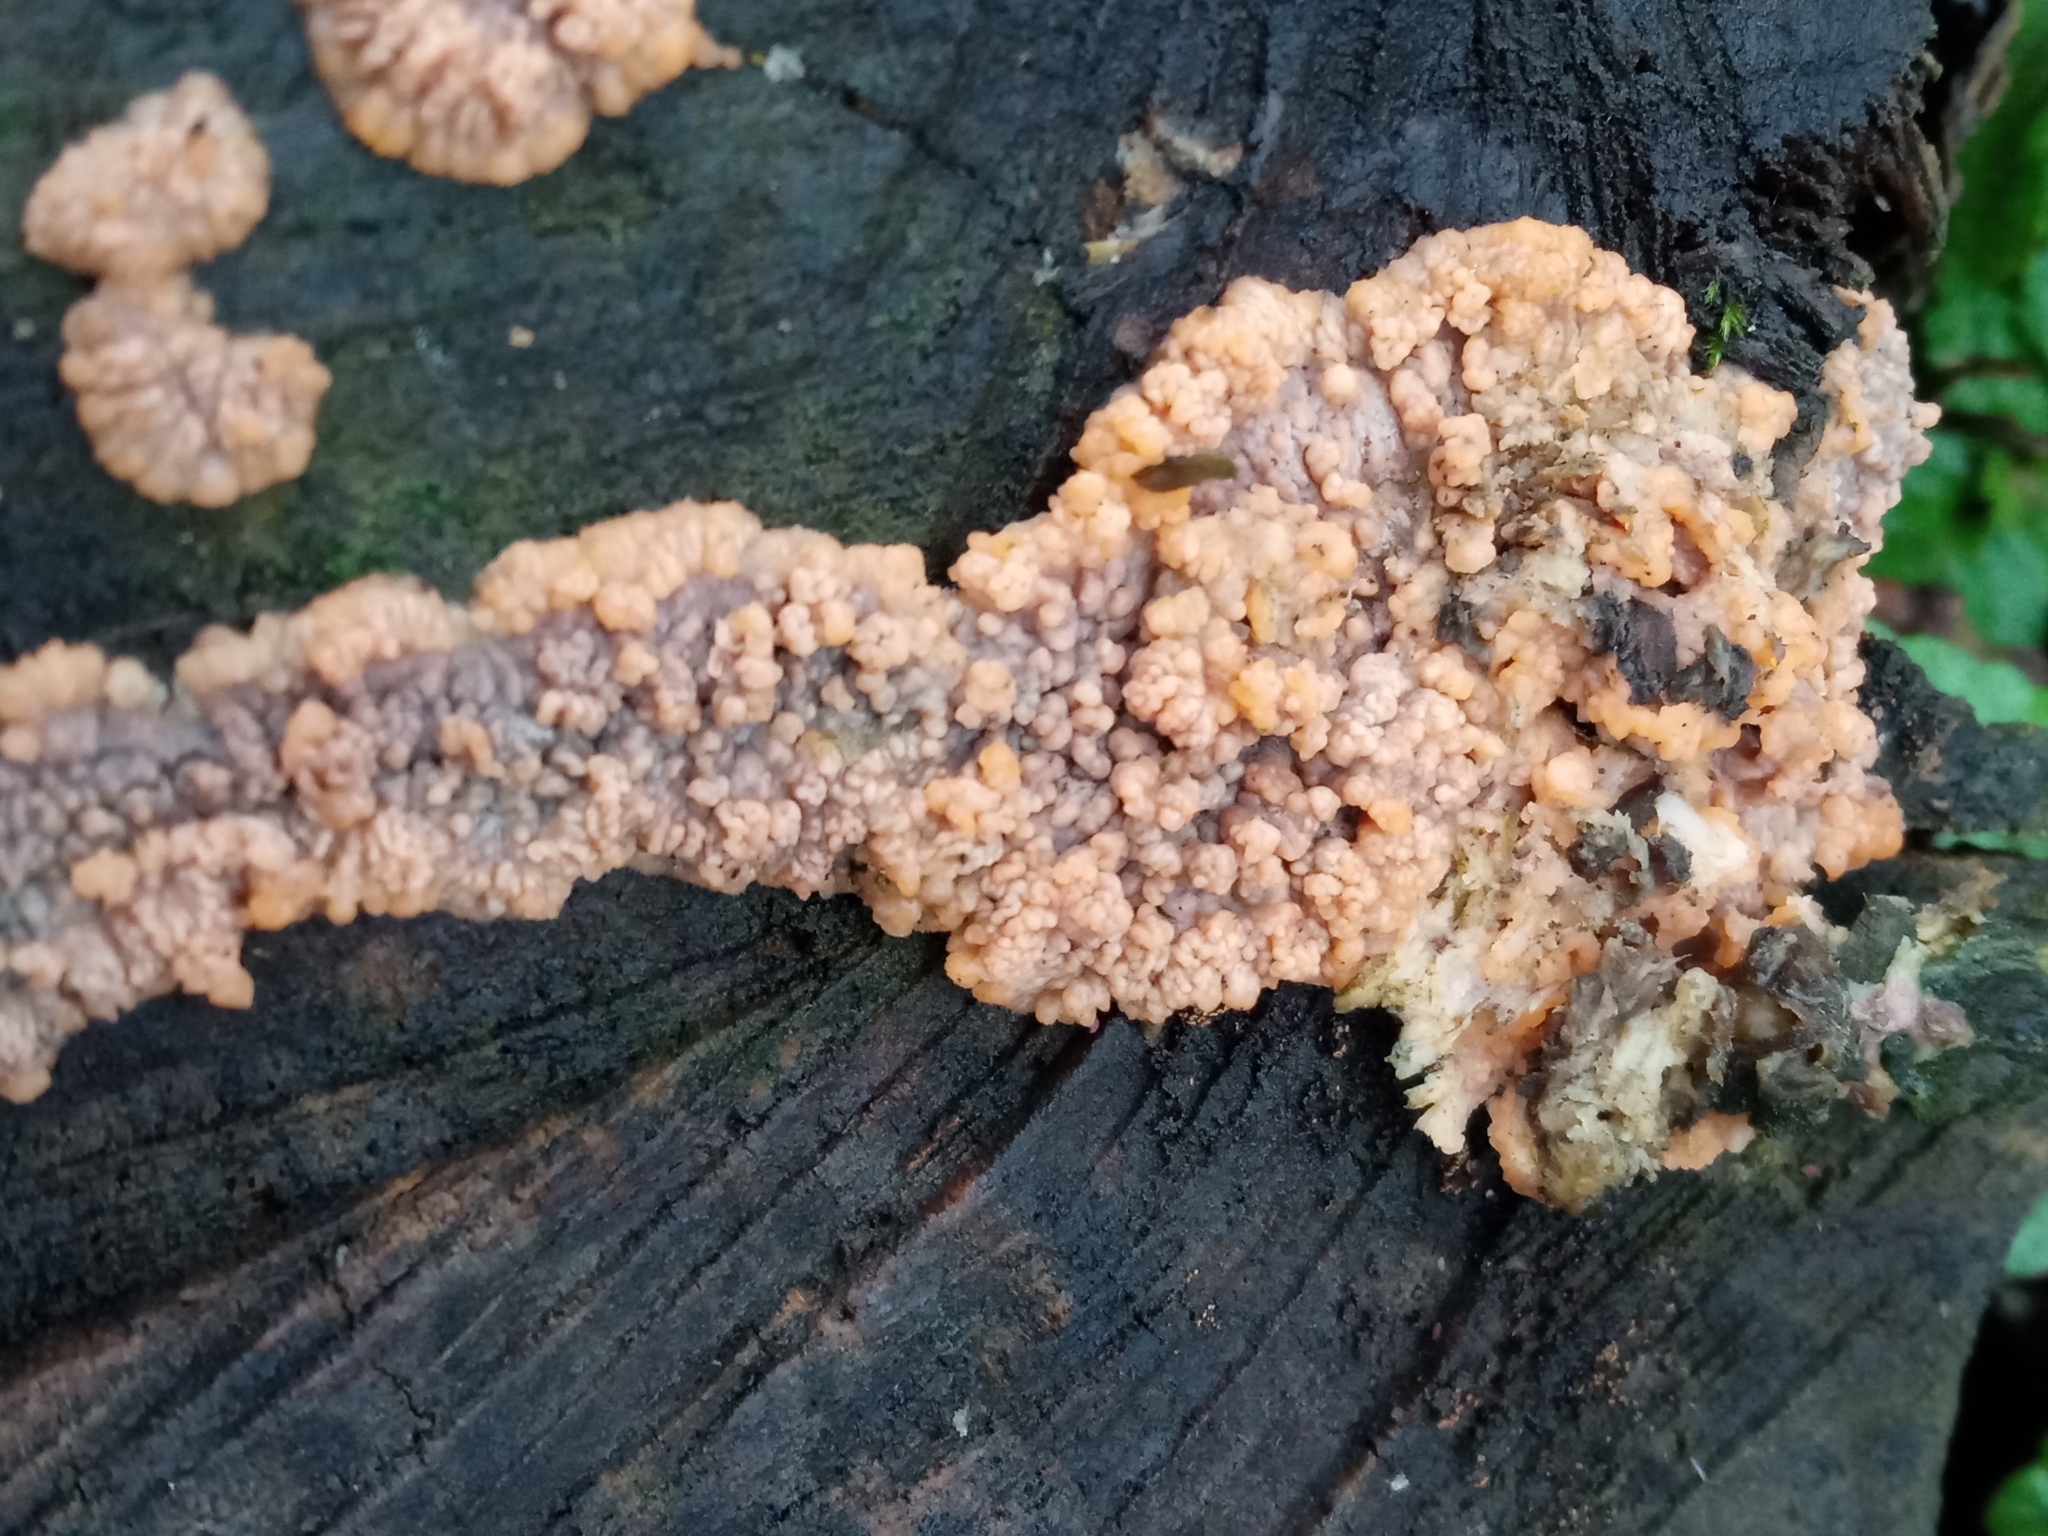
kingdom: Fungi
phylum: Basidiomycota
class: Agaricomycetes
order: Polyporales
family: Meruliaceae
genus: Phlebia
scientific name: Phlebia radiata
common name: Wrinkled crust
